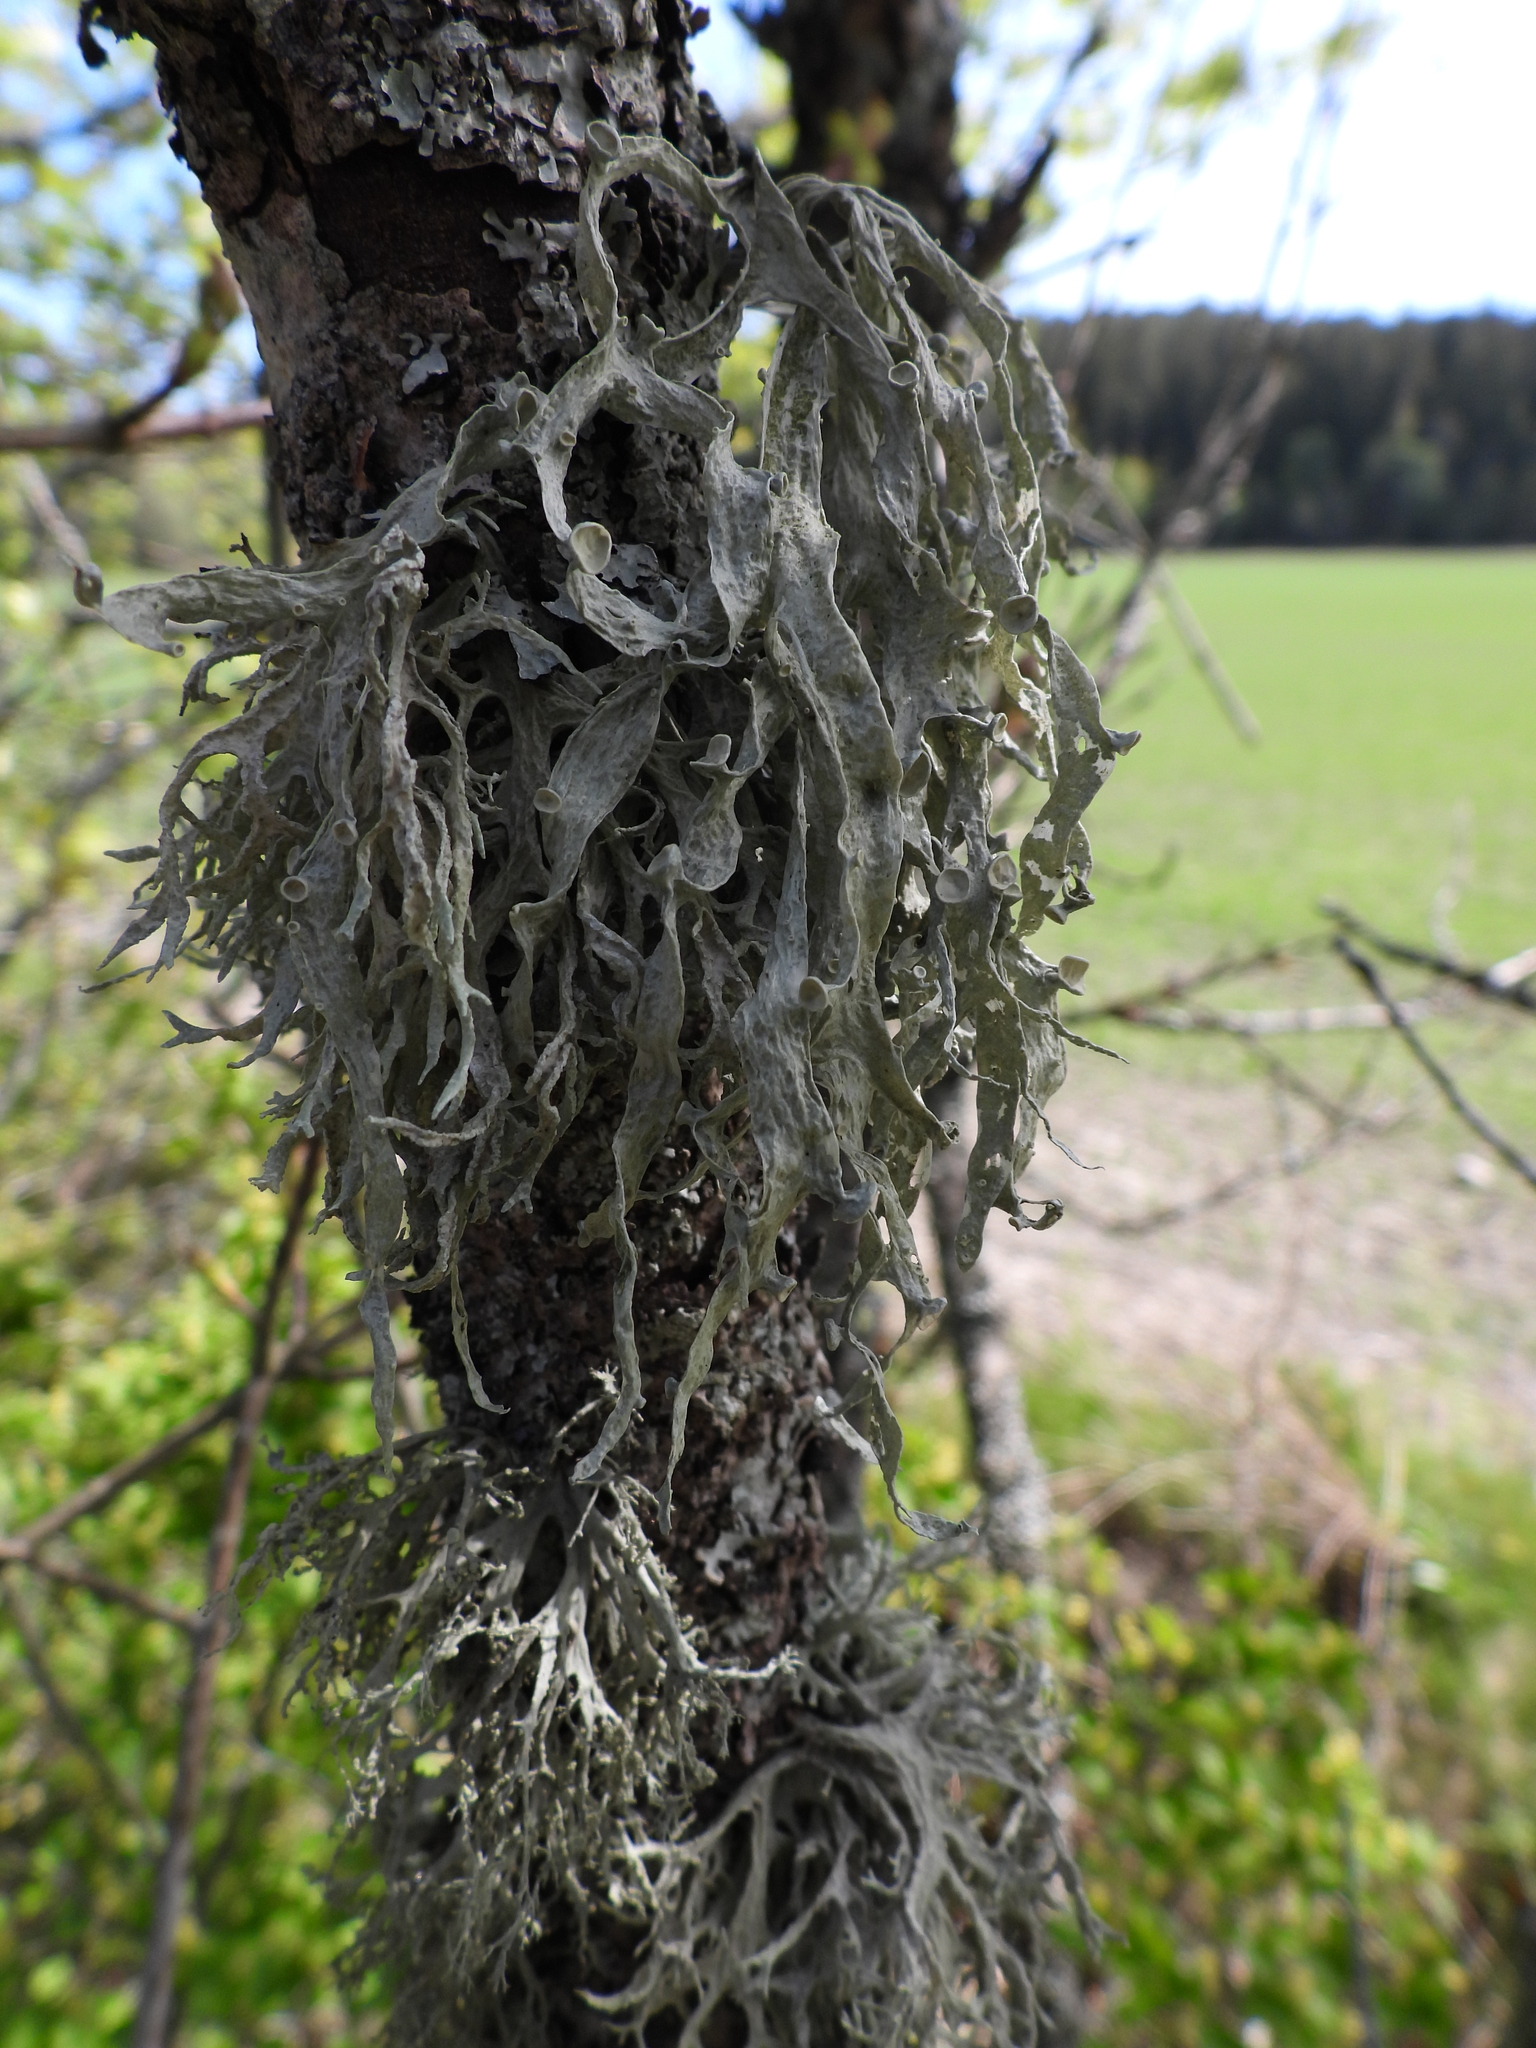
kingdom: Fungi
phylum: Ascomycota
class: Lecanoromycetes
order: Lecanorales
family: Ramalinaceae
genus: Ramalina
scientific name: Ramalina fraxinea
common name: Cartilage lichen
